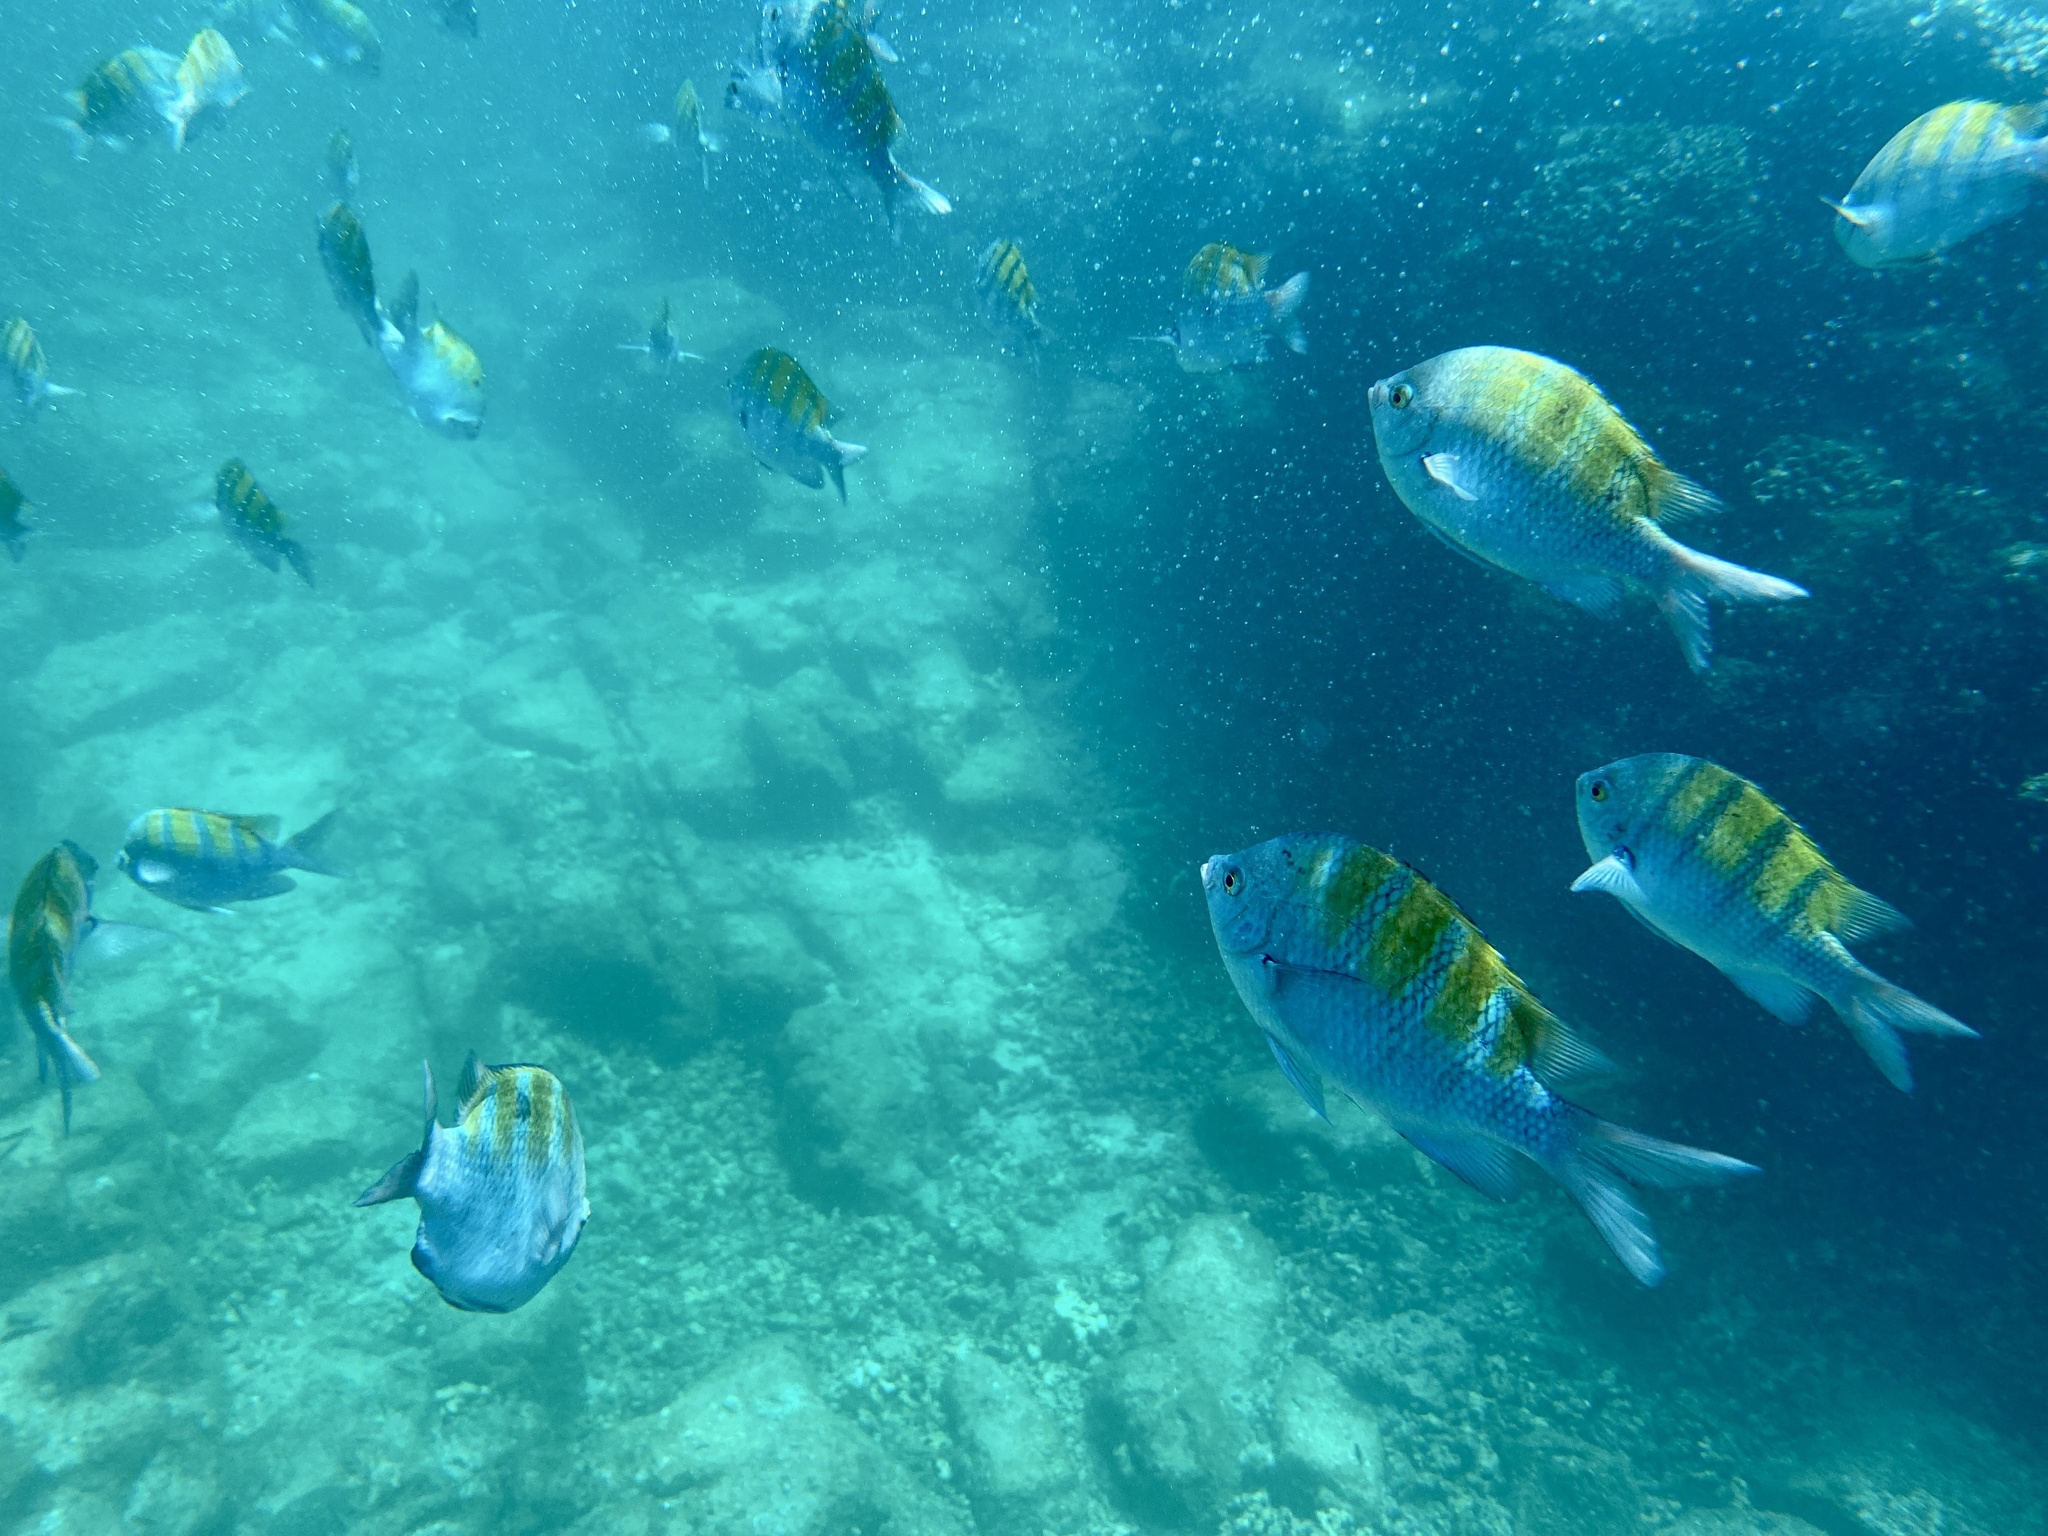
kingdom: Animalia
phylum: Chordata
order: Perciformes
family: Pomacentridae
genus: Abudefduf
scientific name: Abudefduf troschelii
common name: Panamic sergeant major
